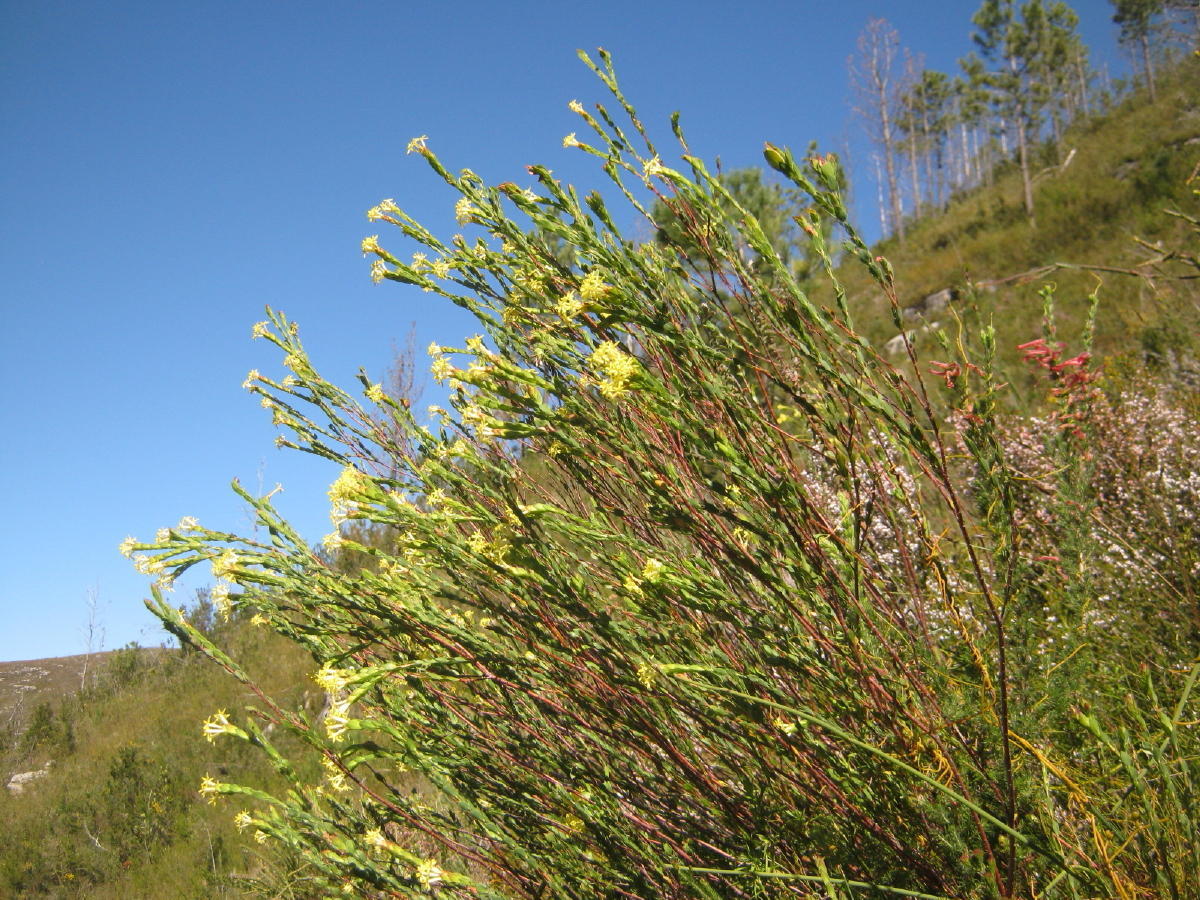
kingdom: Plantae
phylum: Tracheophyta
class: Magnoliopsida
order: Malvales
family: Thymelaeaceae
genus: Gnidia
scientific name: Gnidia oppositifolia
